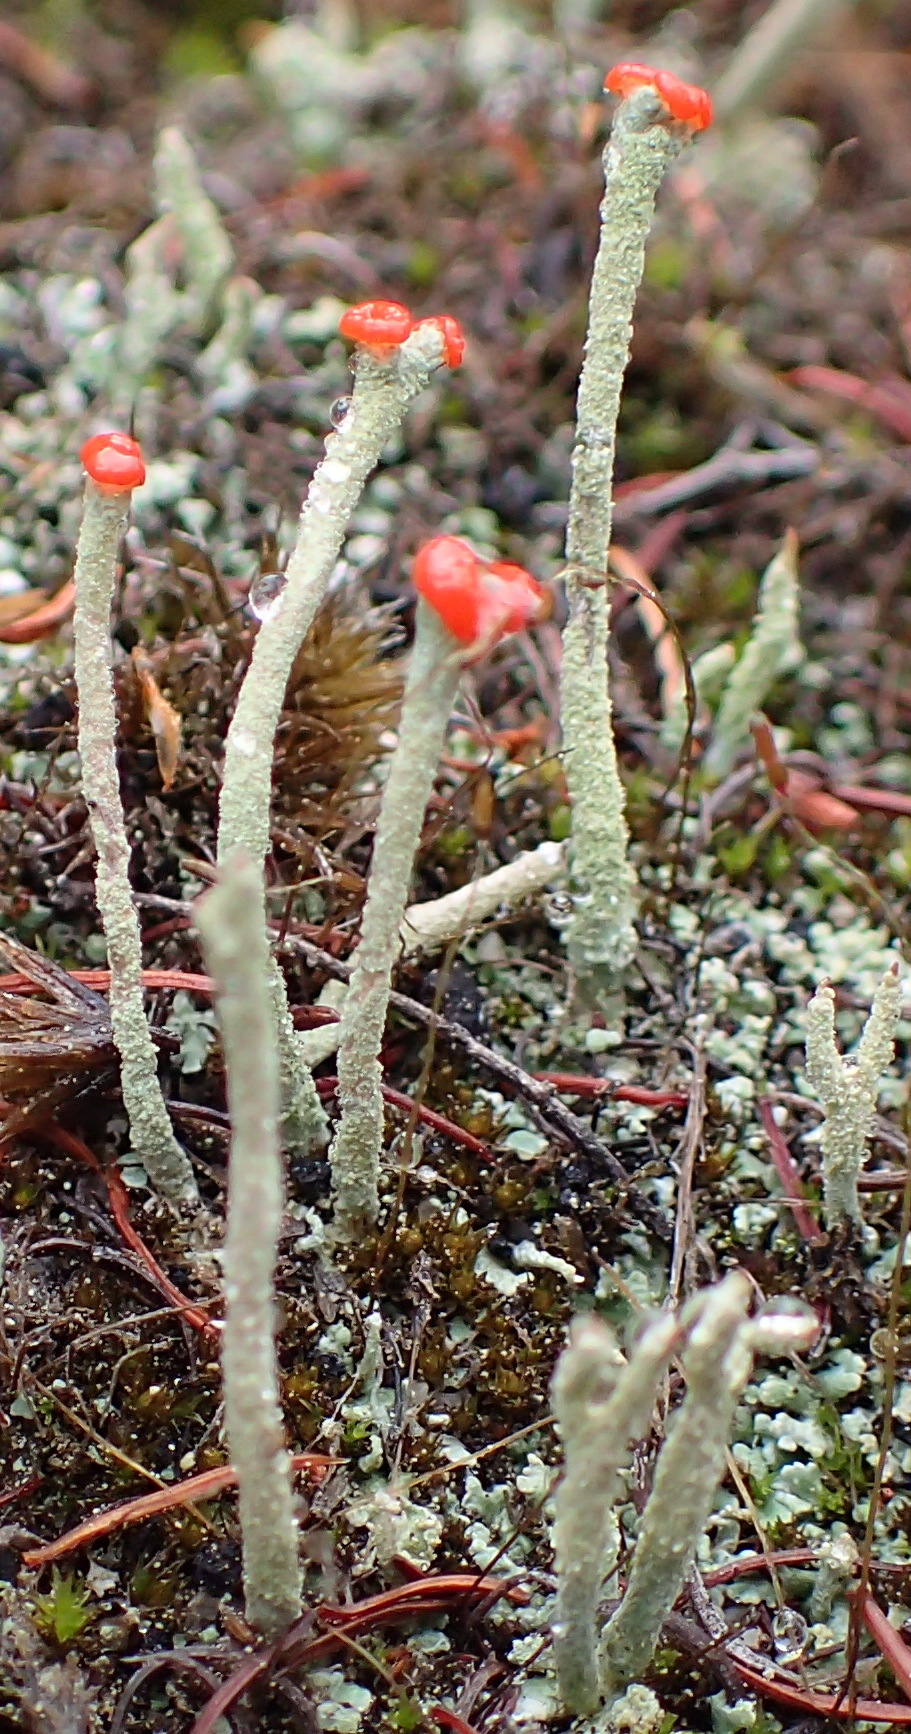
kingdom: Fungi
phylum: Ascomycota
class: Lecanoromycetes
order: Lecanorales
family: Cladoniaceae
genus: Cladonia
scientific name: Cladonia macilenta
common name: Lipstick powderhorn
